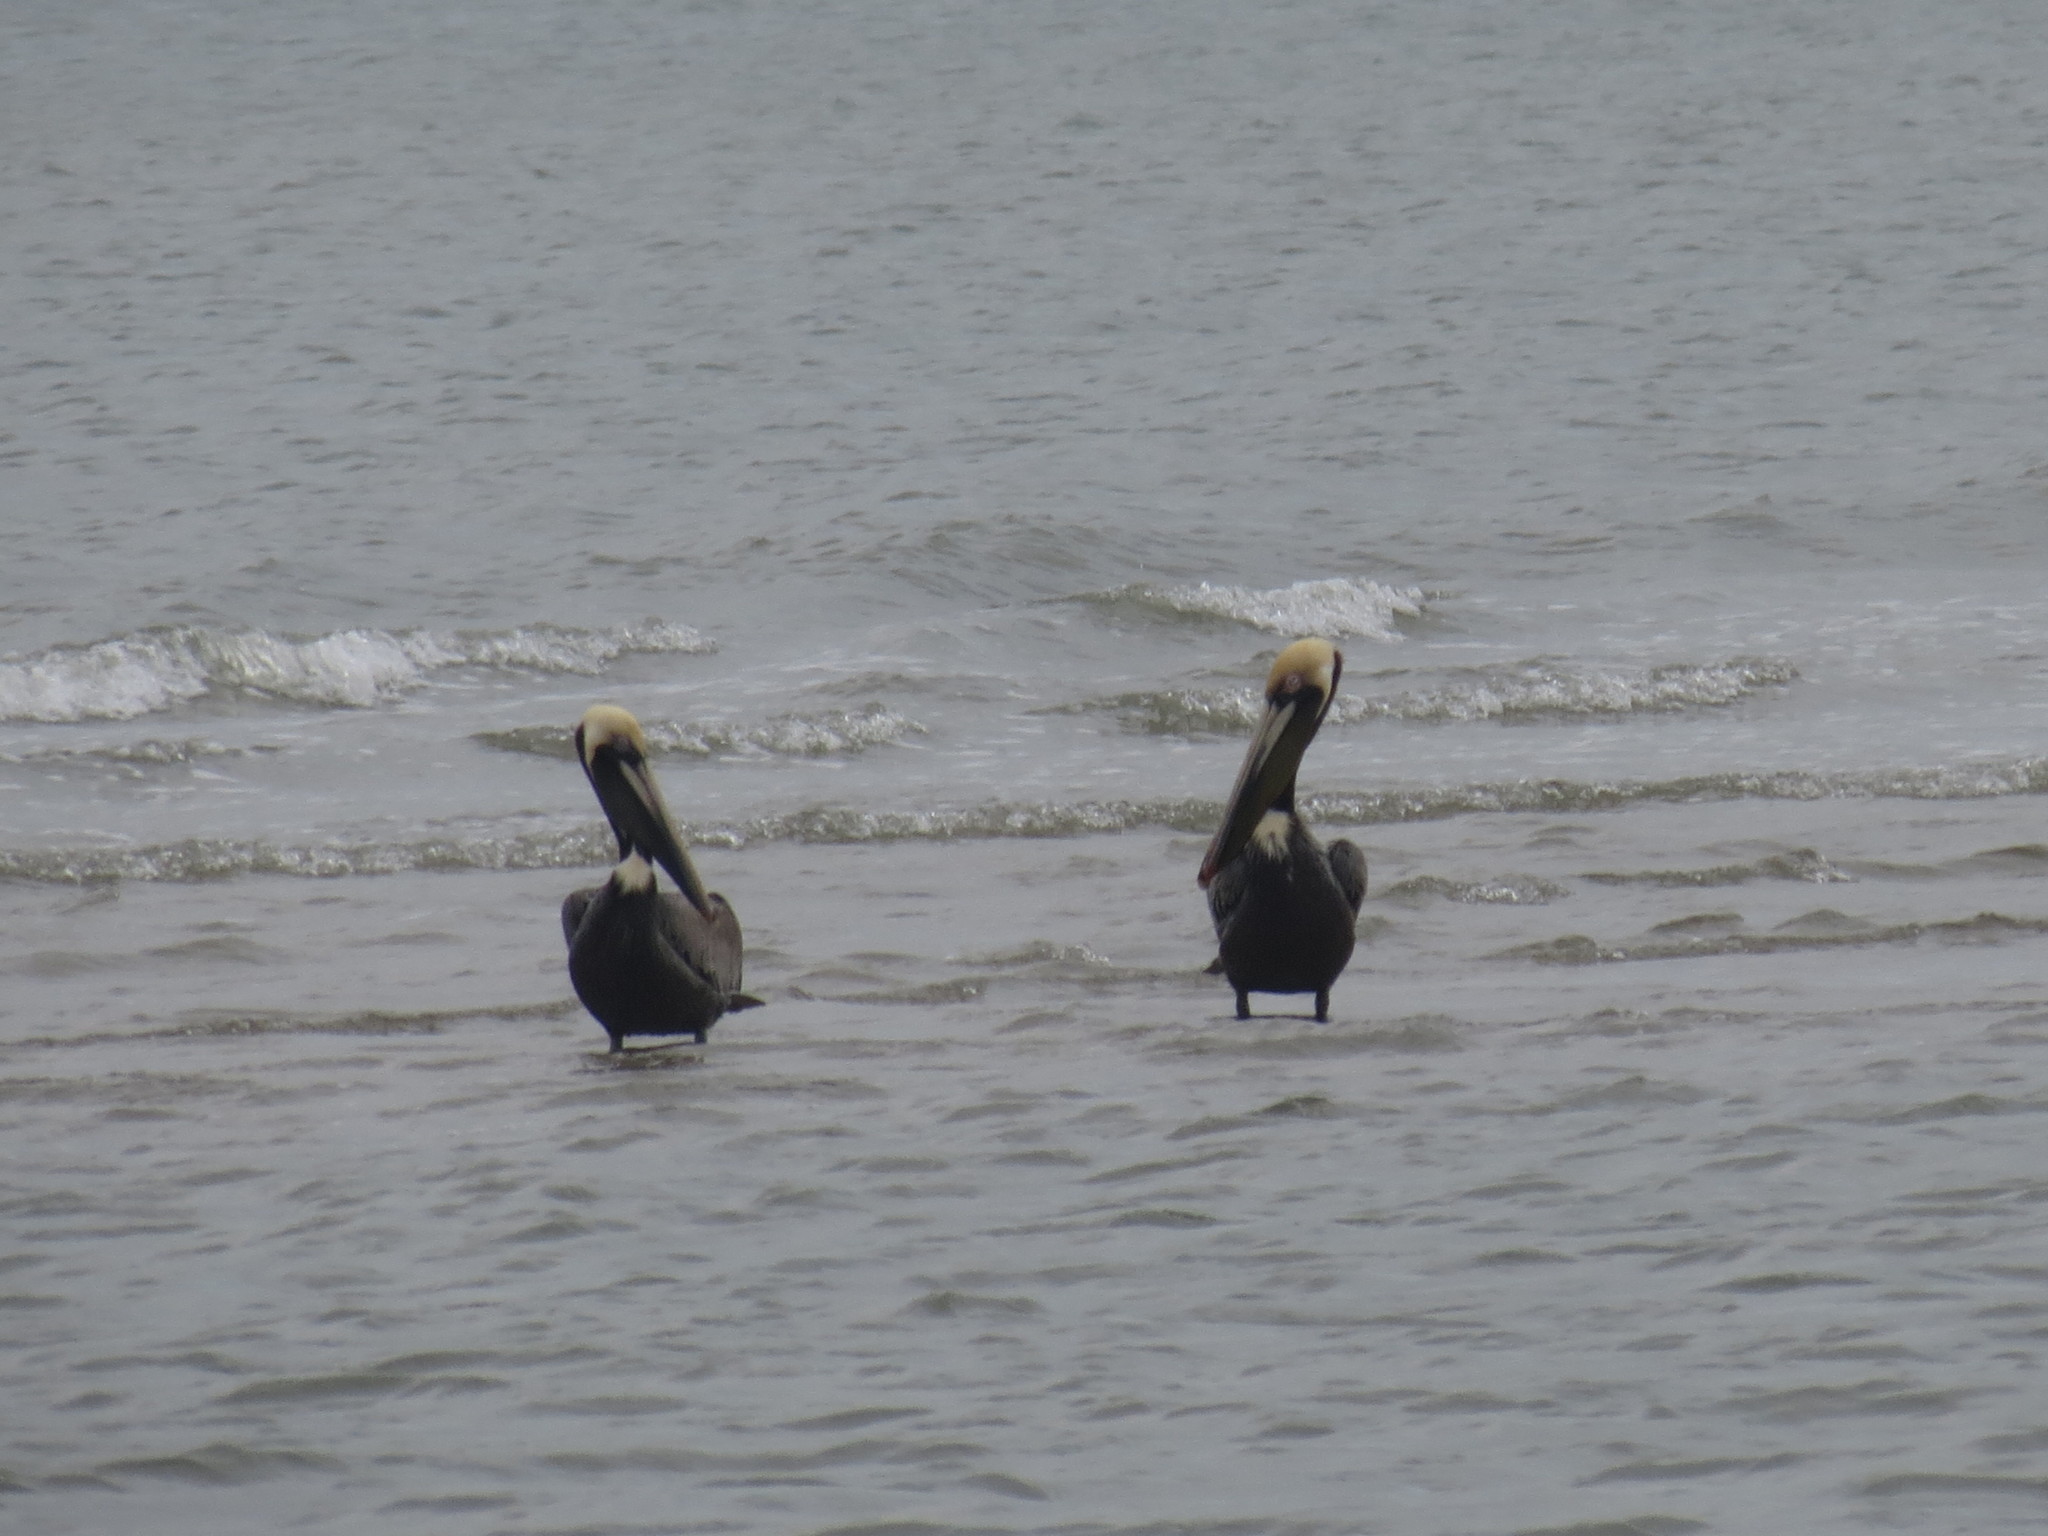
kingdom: Animalia
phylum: Chordata
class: Aves
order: Pelecaniformes
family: Pelecanidae
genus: Pelecanus
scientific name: Pelecanus occidentalis
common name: Brown pelican
